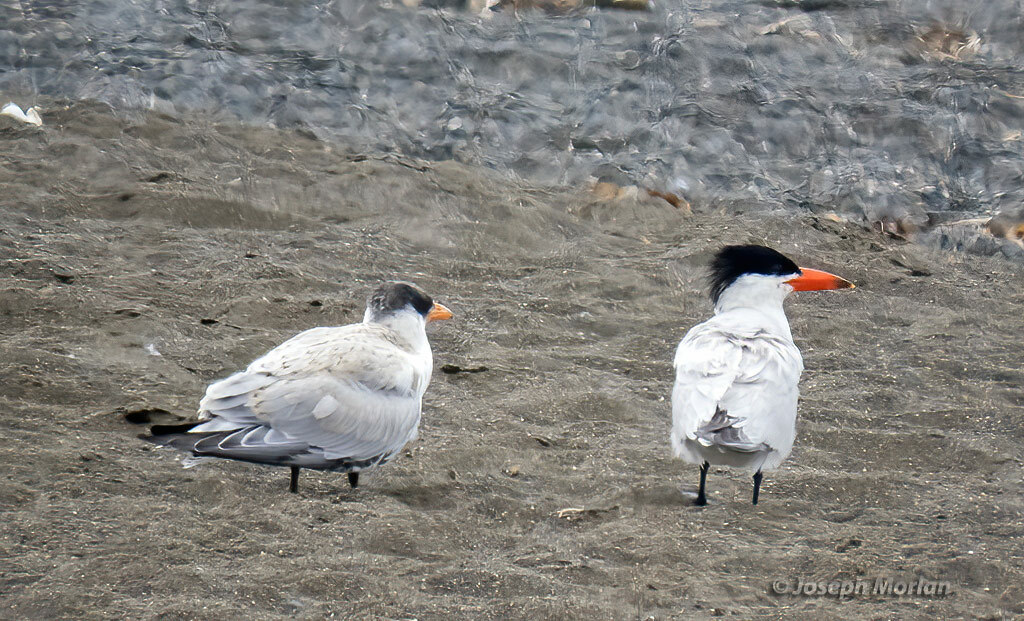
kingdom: Animalia
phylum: Chordata
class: Aves
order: Charadriiformes
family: Laridae
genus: Hydroprogne
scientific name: Hydroprogne caspia
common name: Caspian tern
